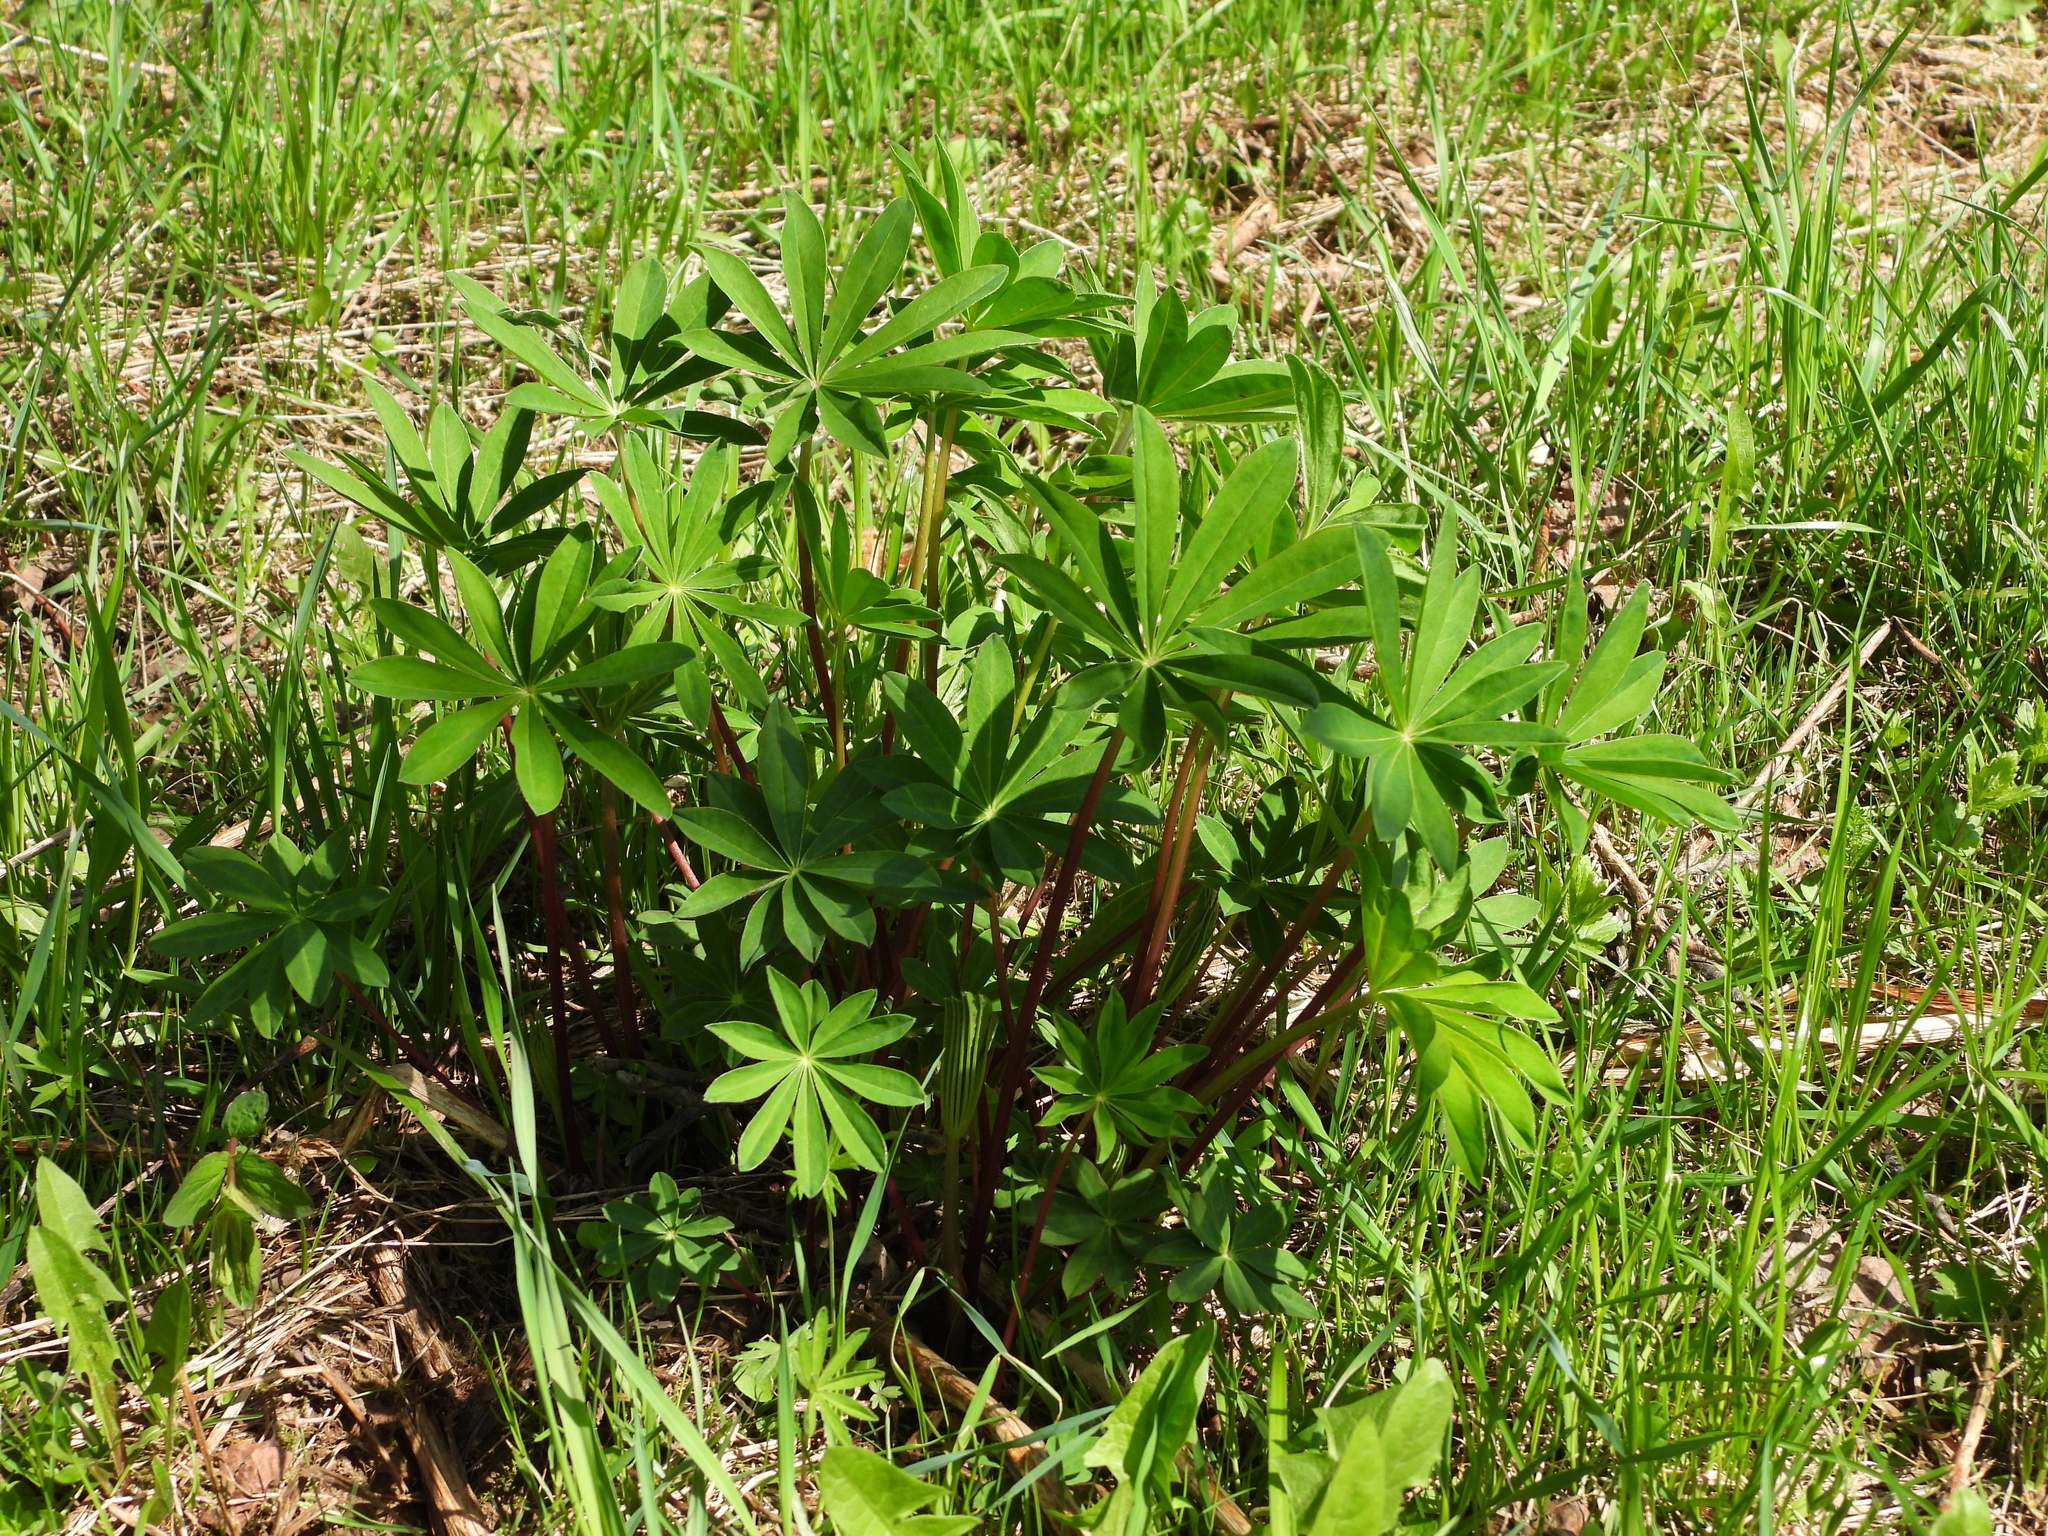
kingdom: Plantae
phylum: Tracheophyta
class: Magnoliopsida
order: Fabales
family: Fabaceae
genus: Lupinus
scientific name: Lupinus polyphyllus
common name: Garden lupin
